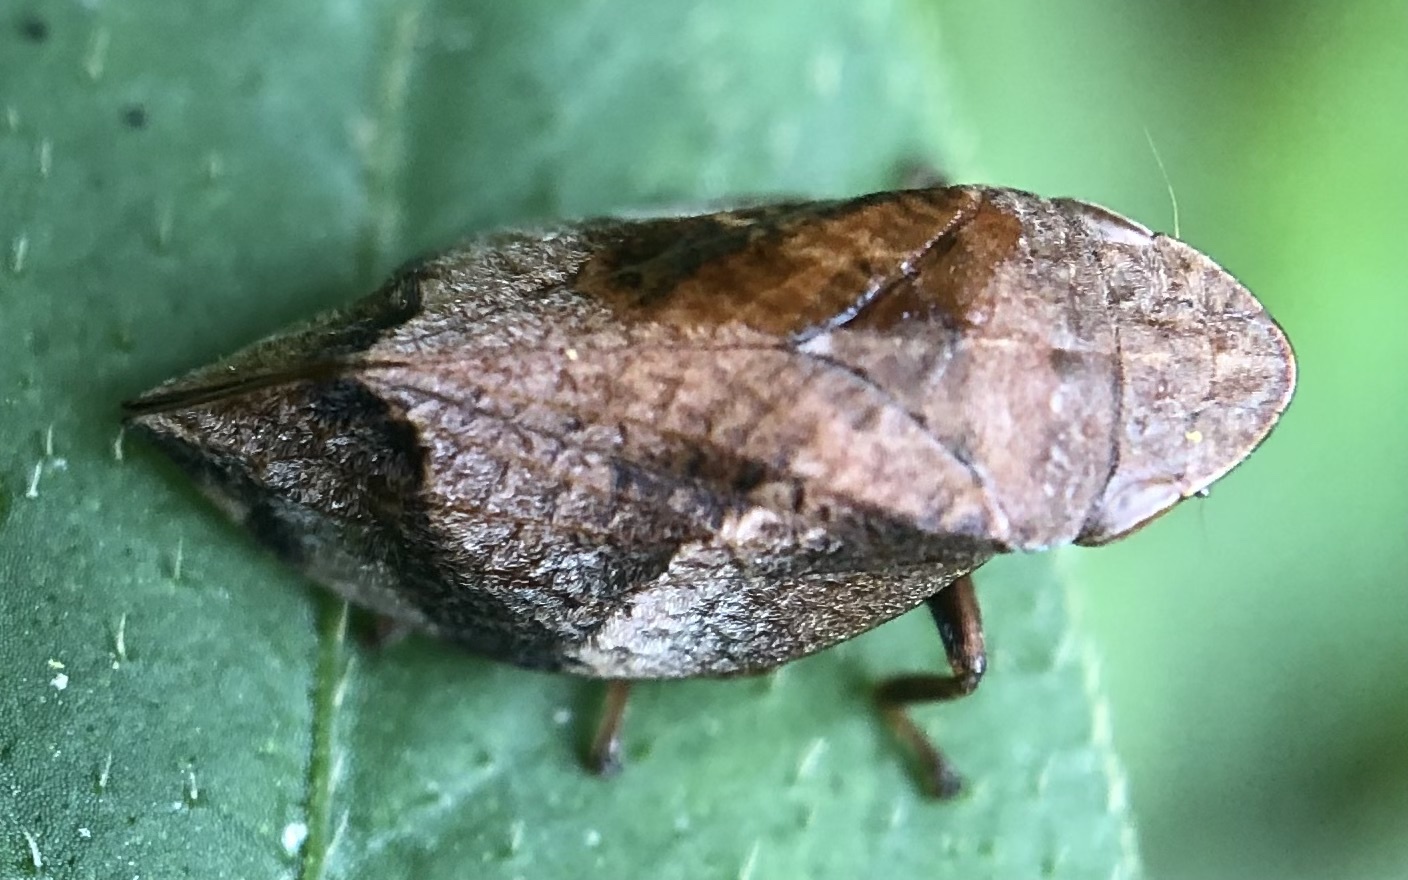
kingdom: Animalia
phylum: Arthropoda
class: Insecta
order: Hemiptera
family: Aphrophoridae
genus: Lepyronia
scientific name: Lepyronia quadrangularis
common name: Diamond-backed spittlebug
